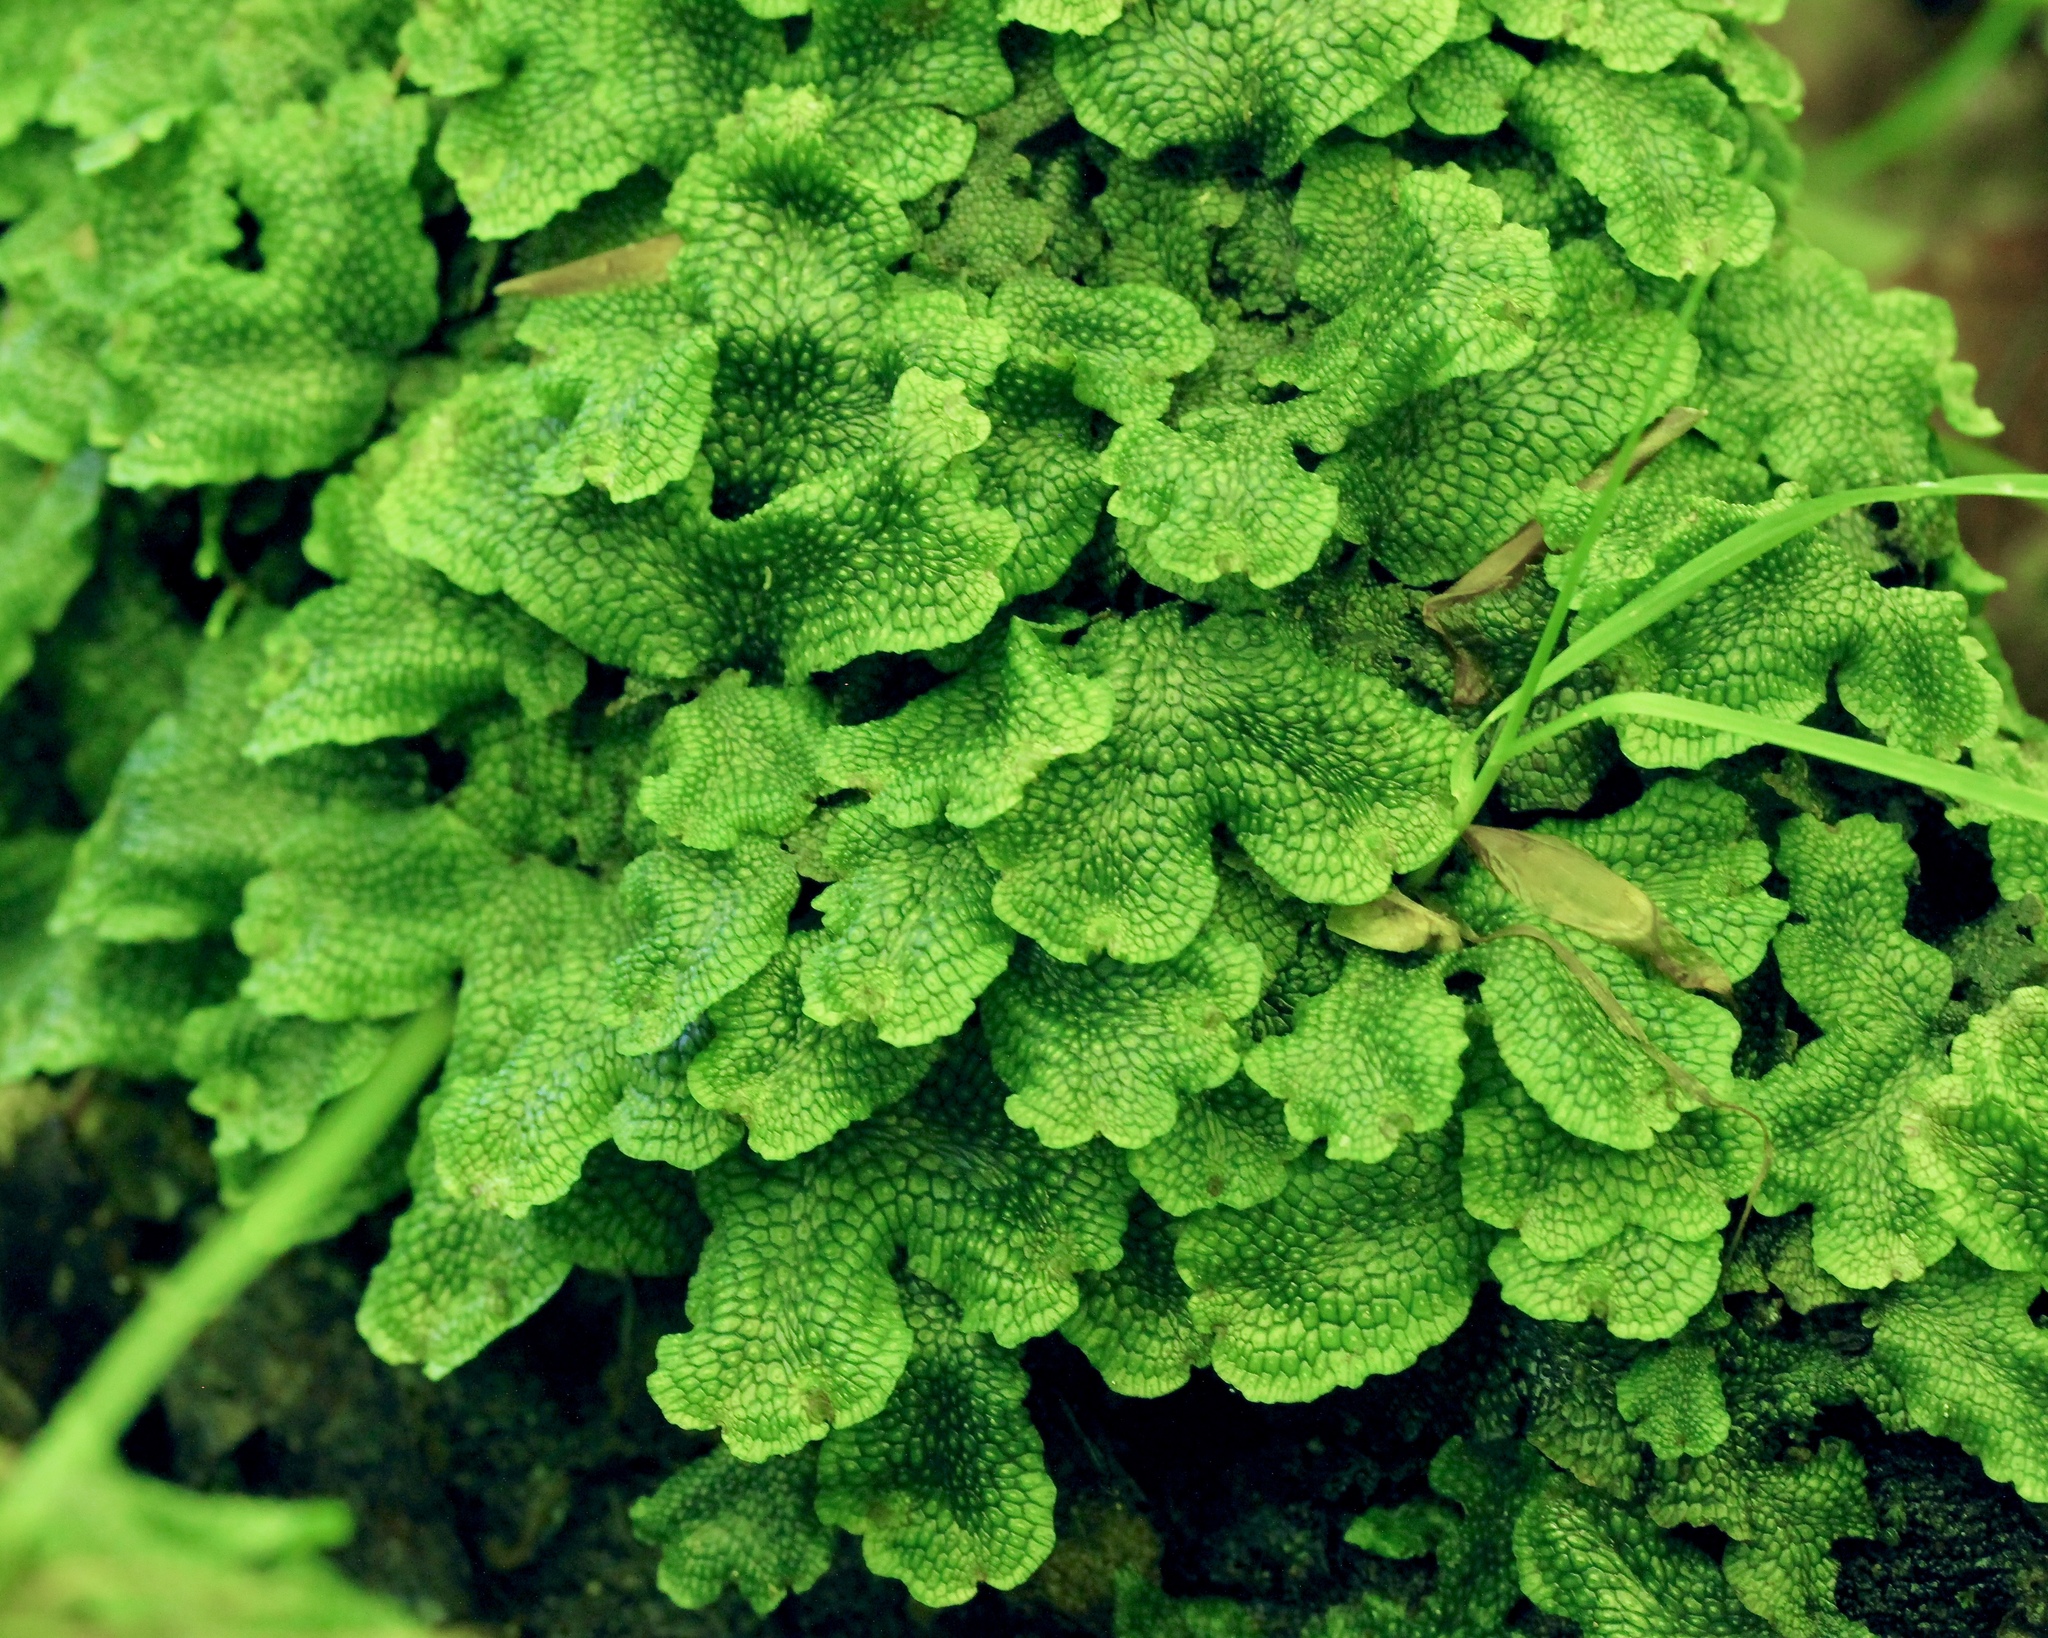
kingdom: Plantae
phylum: Marchantiophyta
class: Marchantiopsida
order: Marchantiales
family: Conocephalaceae
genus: Conocephalum
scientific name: Conocephalum salebrosum
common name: Cat-tongue liverwort
